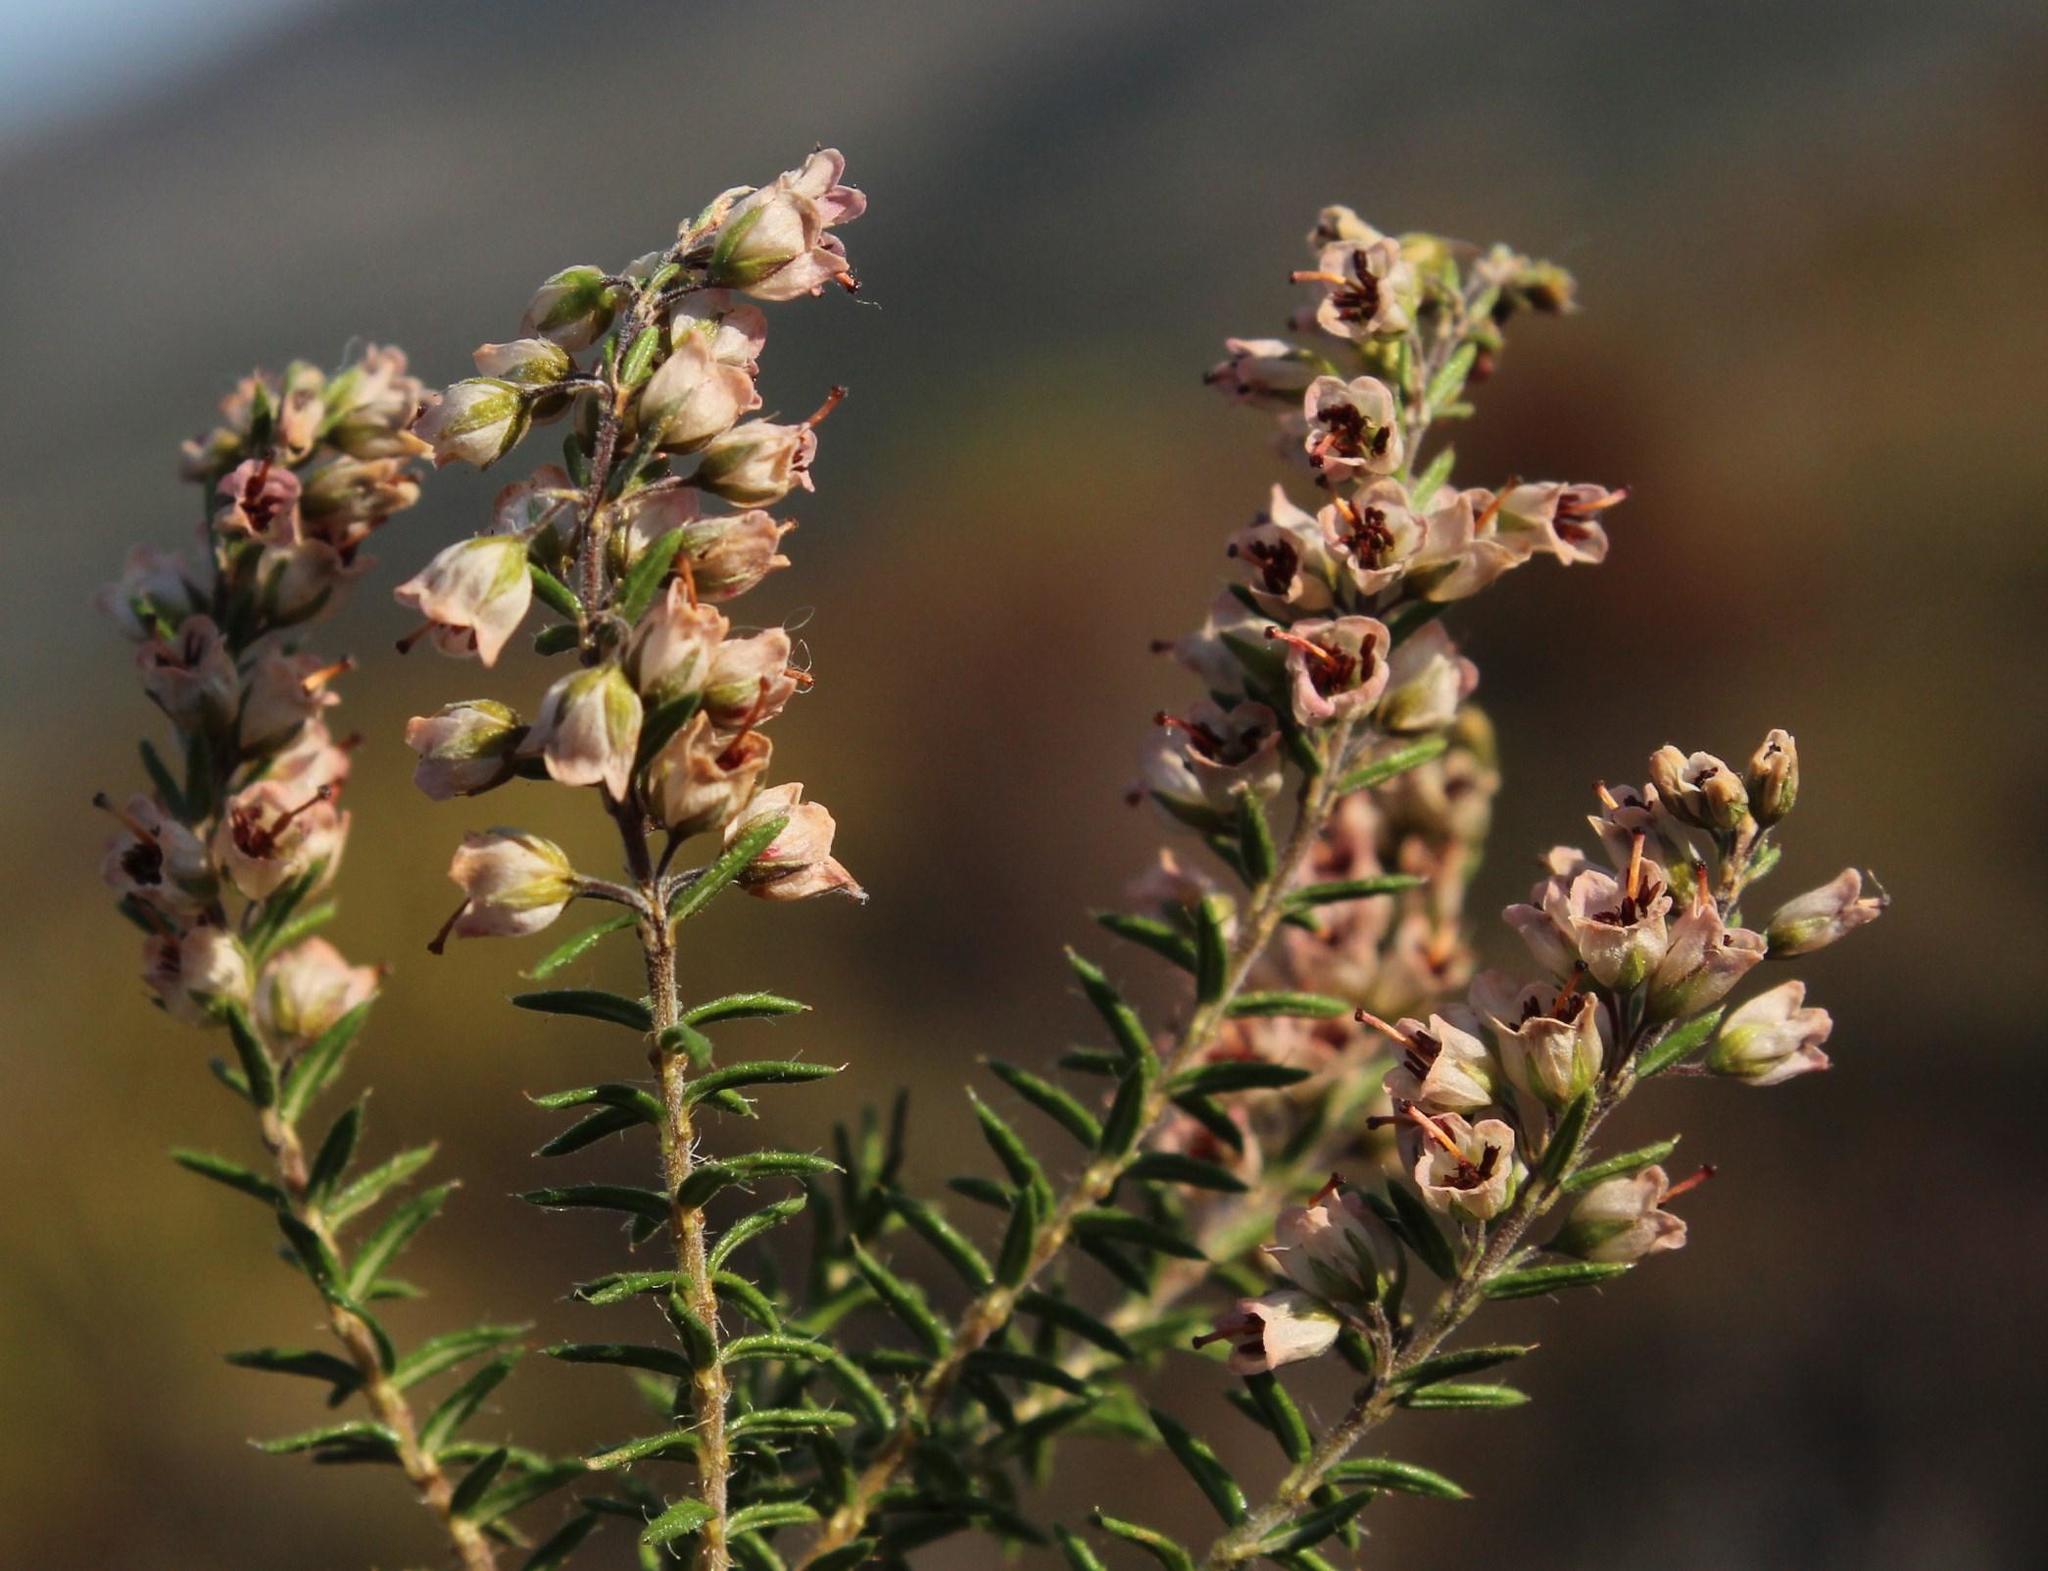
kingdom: Plantae
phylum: Tracheophyta
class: Magnoliopsida
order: Ericales
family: Ericaceae
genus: Erica
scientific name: Erica strigosa
